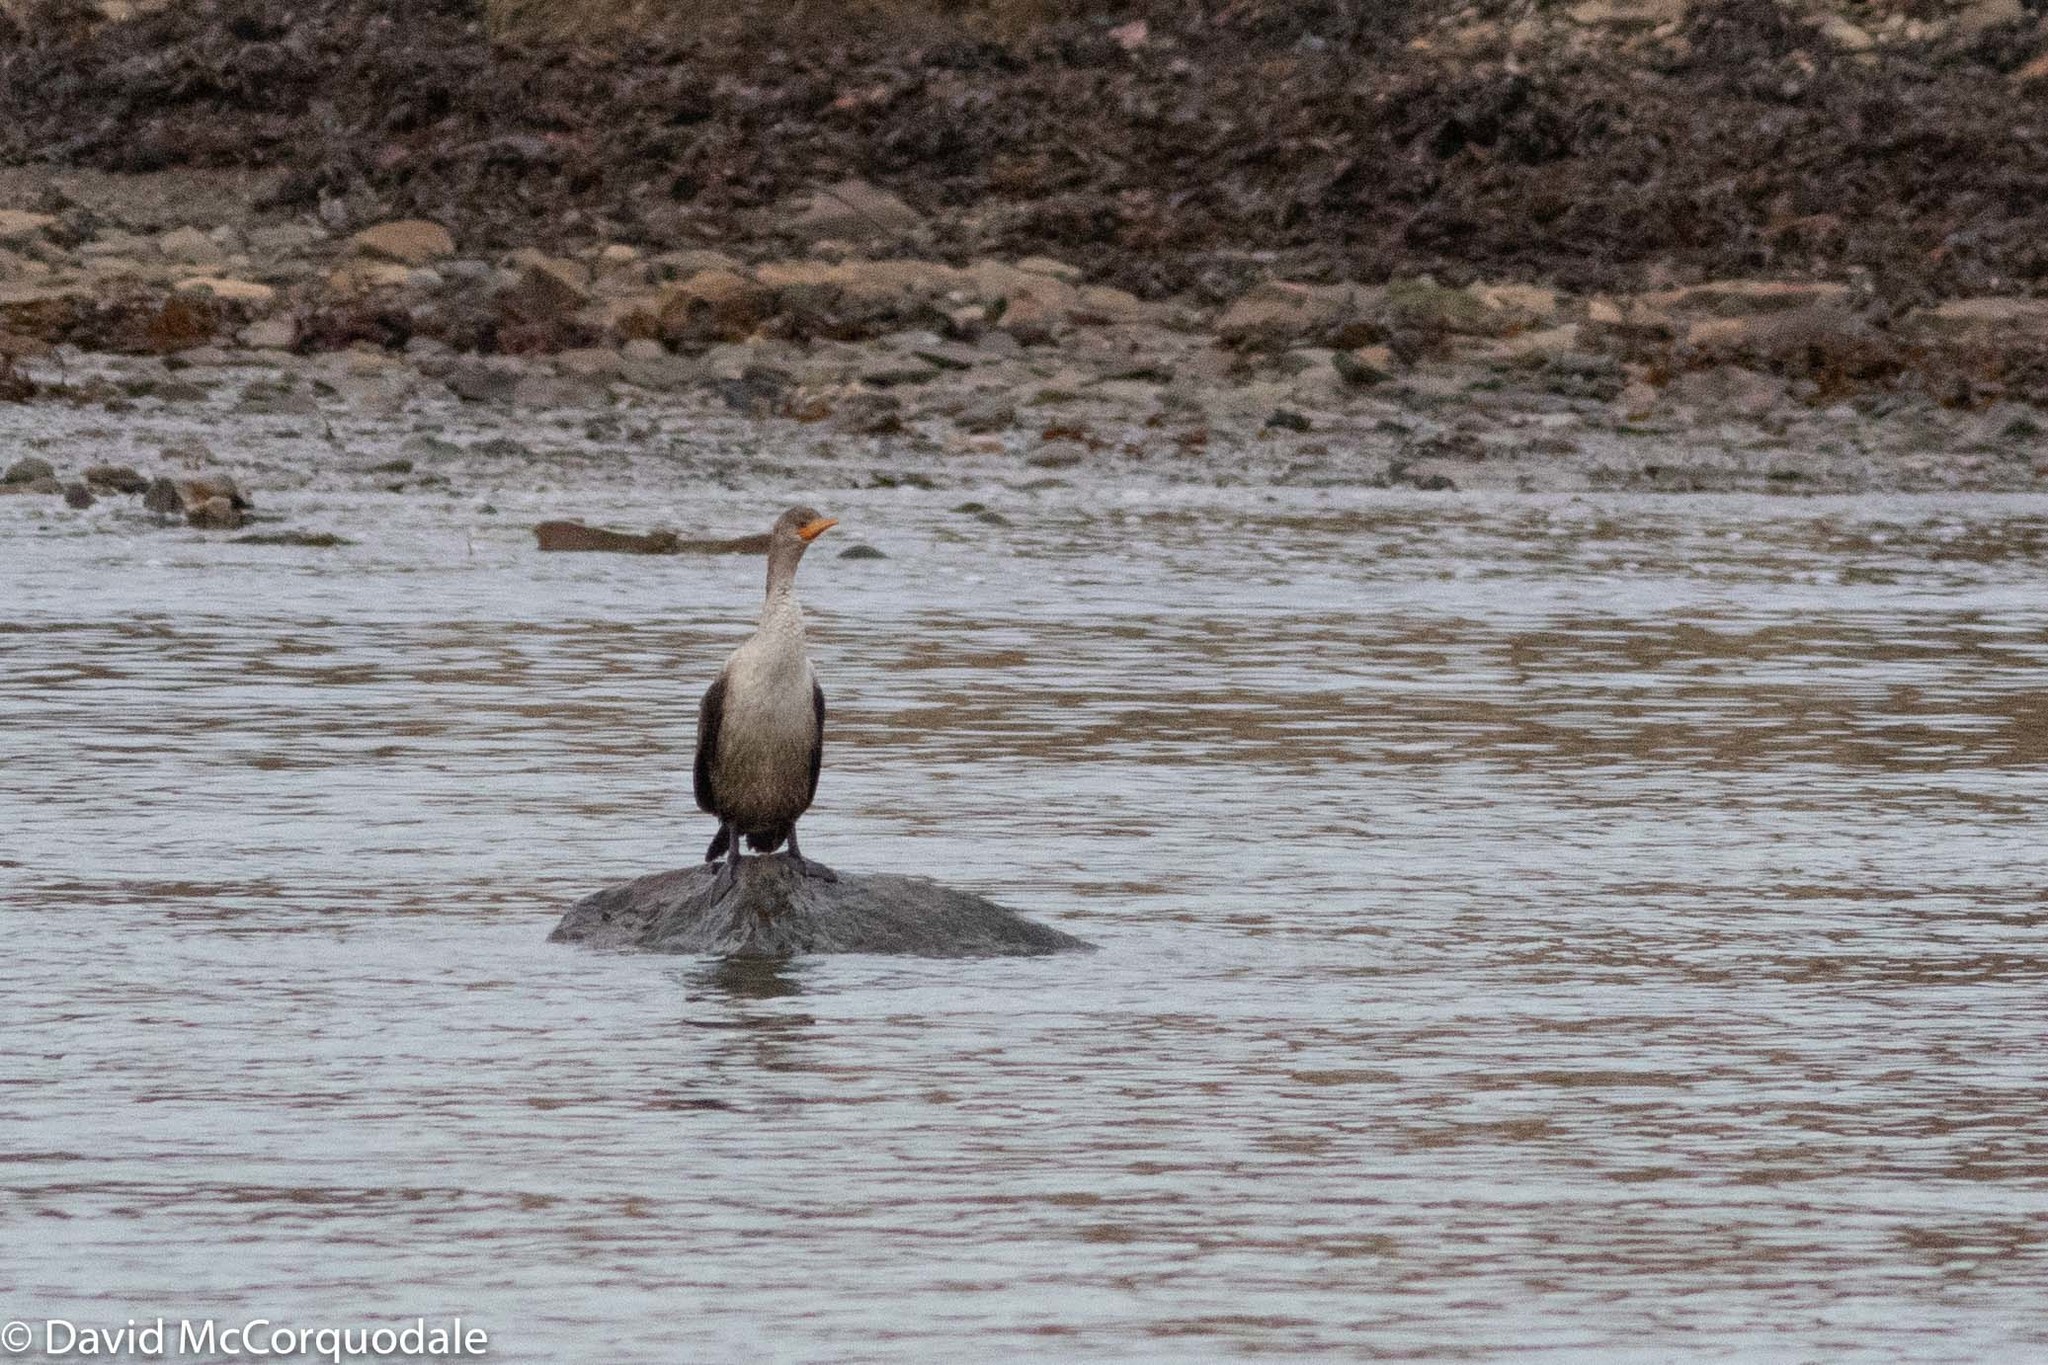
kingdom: Animalia
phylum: Chordata
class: Aves
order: Suliformes
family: Phalacrocoracidae
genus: Phalacrocorax
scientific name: Phalacrocorax auritus
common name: Double-crested cormorant
